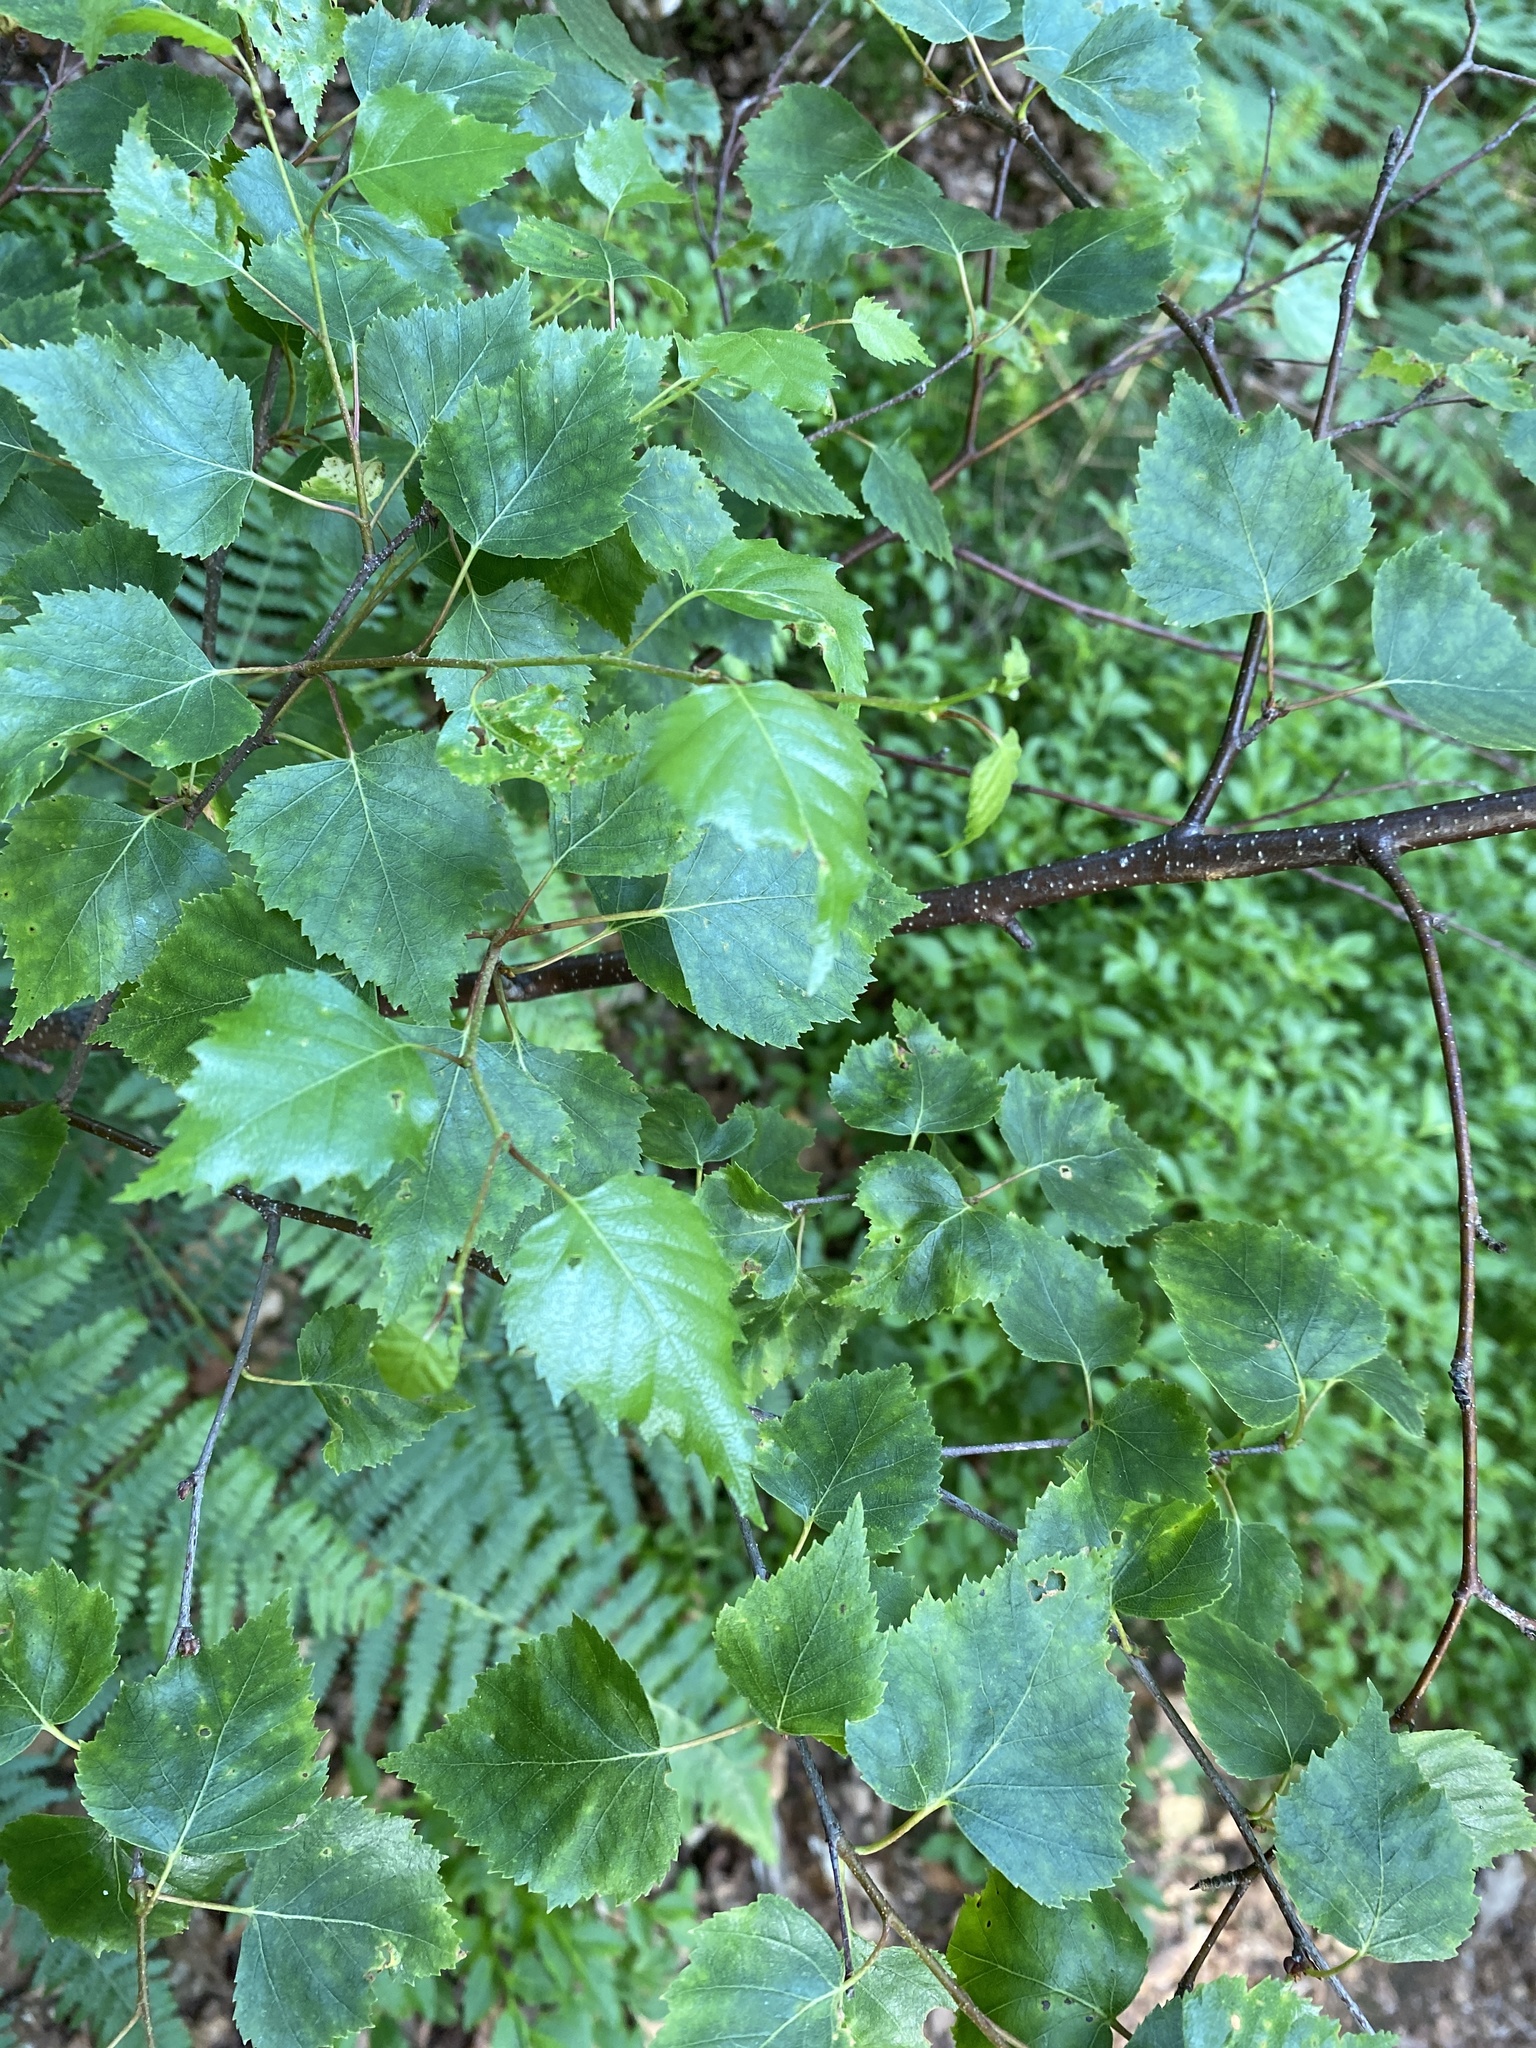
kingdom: Plantae
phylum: Tracheophyta
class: Magnoliopsida
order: Fagales
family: Betulaceae
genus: Betula
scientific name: Betula pendula
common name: Silver birch
